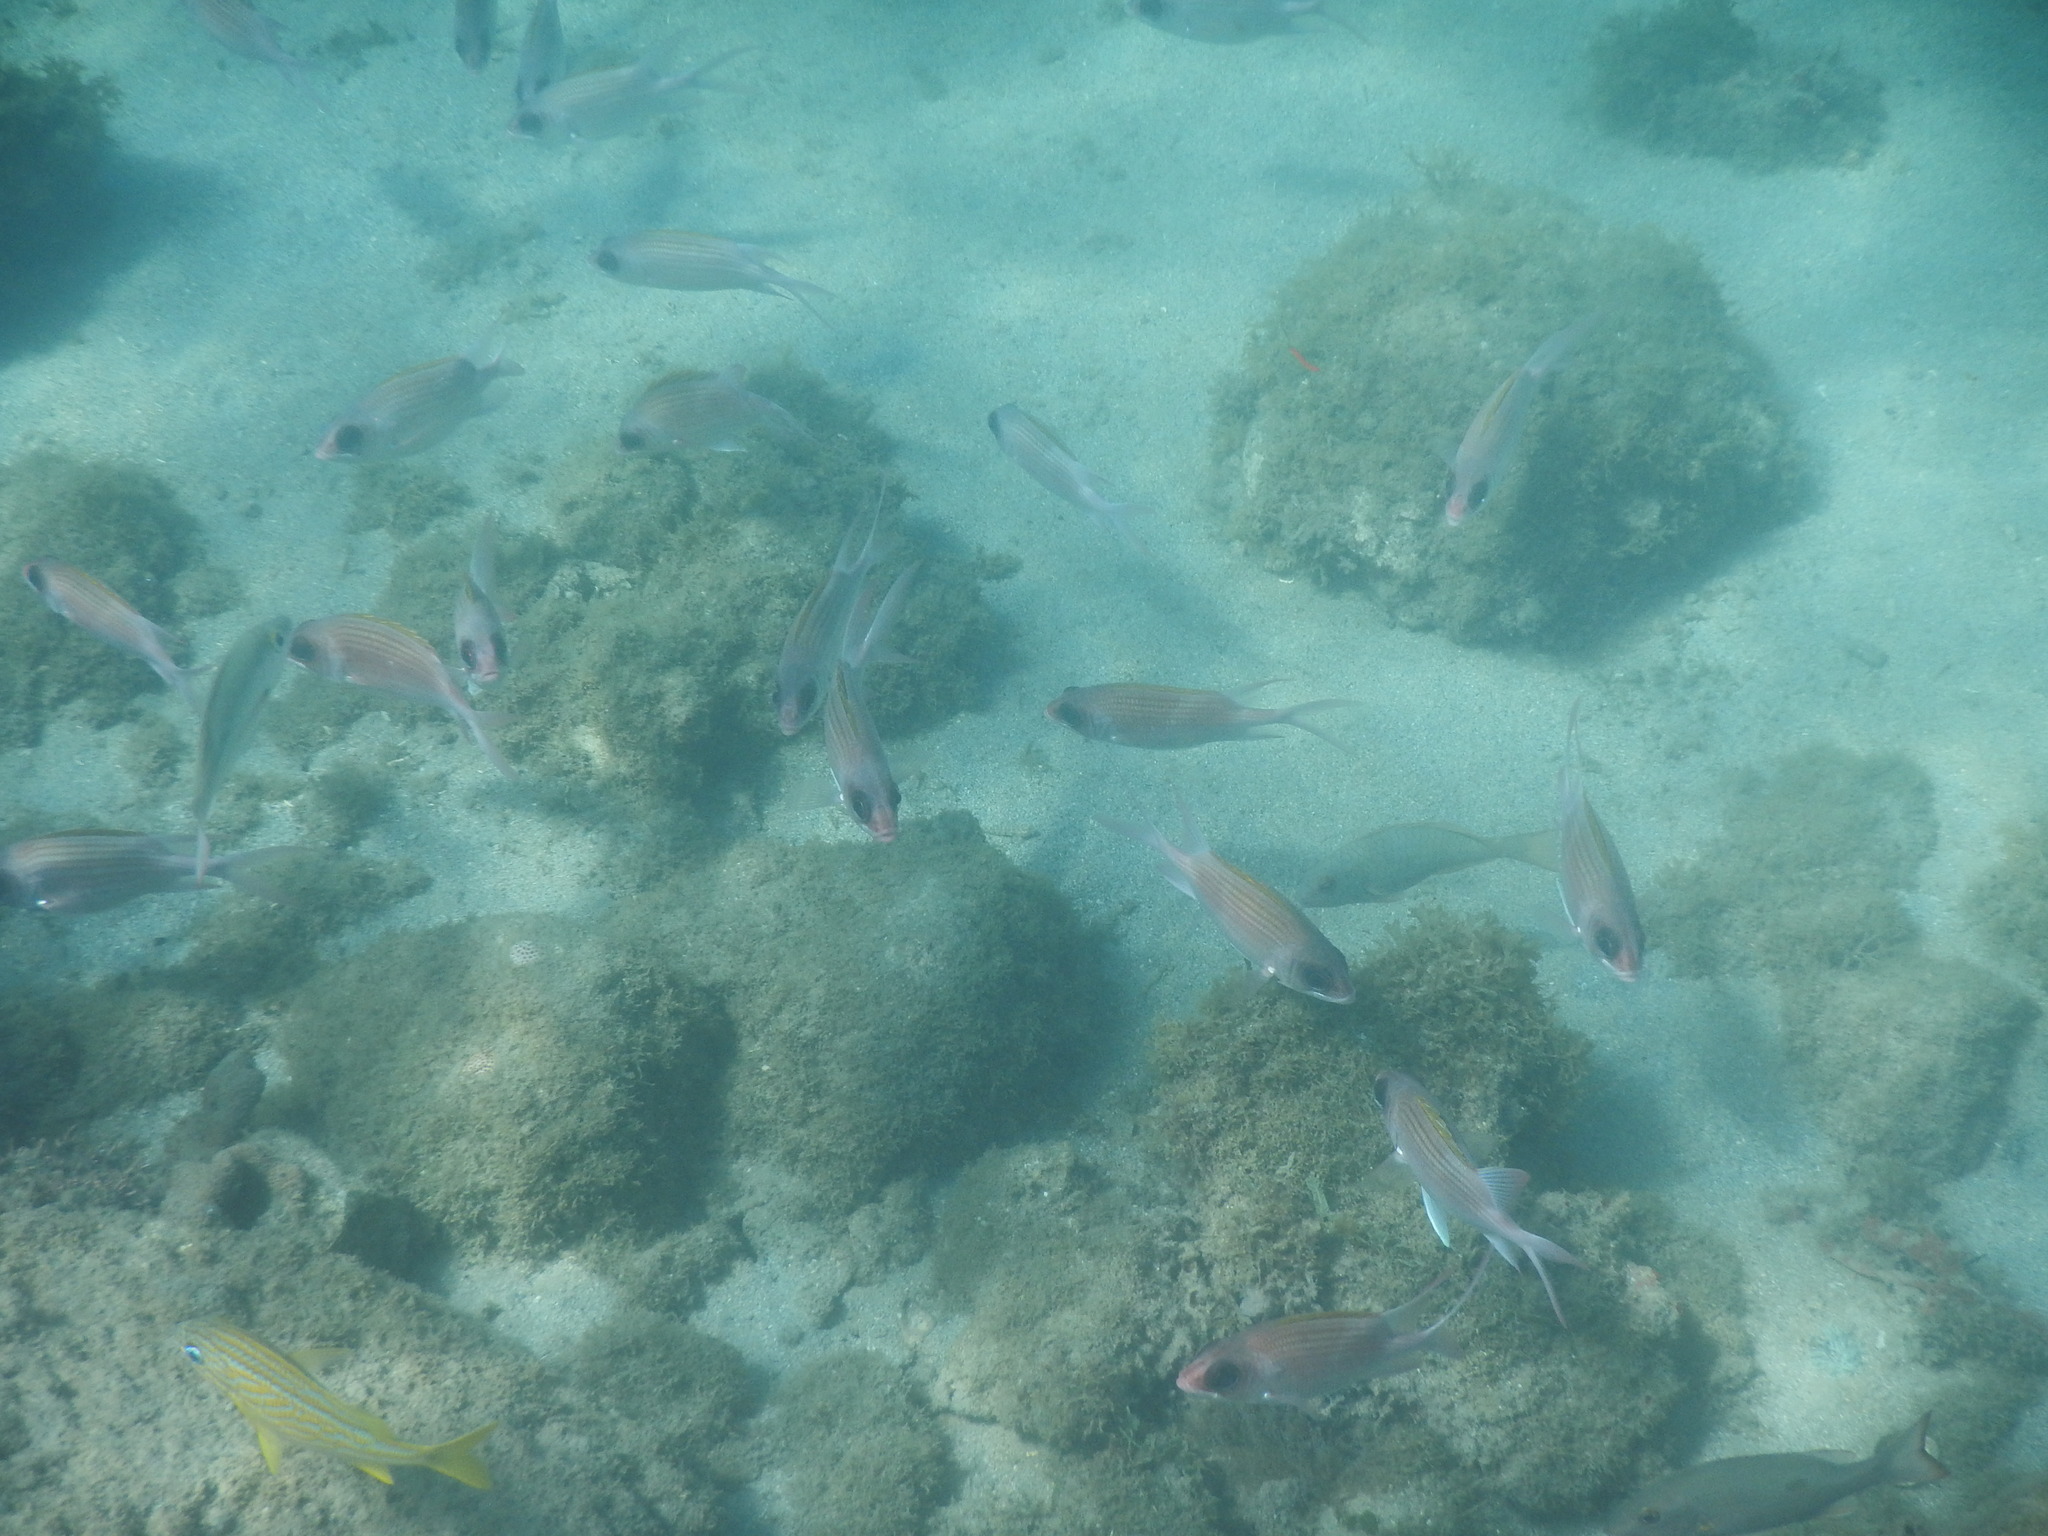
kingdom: Animalia
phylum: Chordata
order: Beryciformes
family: Holocentridae
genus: Holocentrus
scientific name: Holocentrus adscensionis
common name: Squirrelfish
